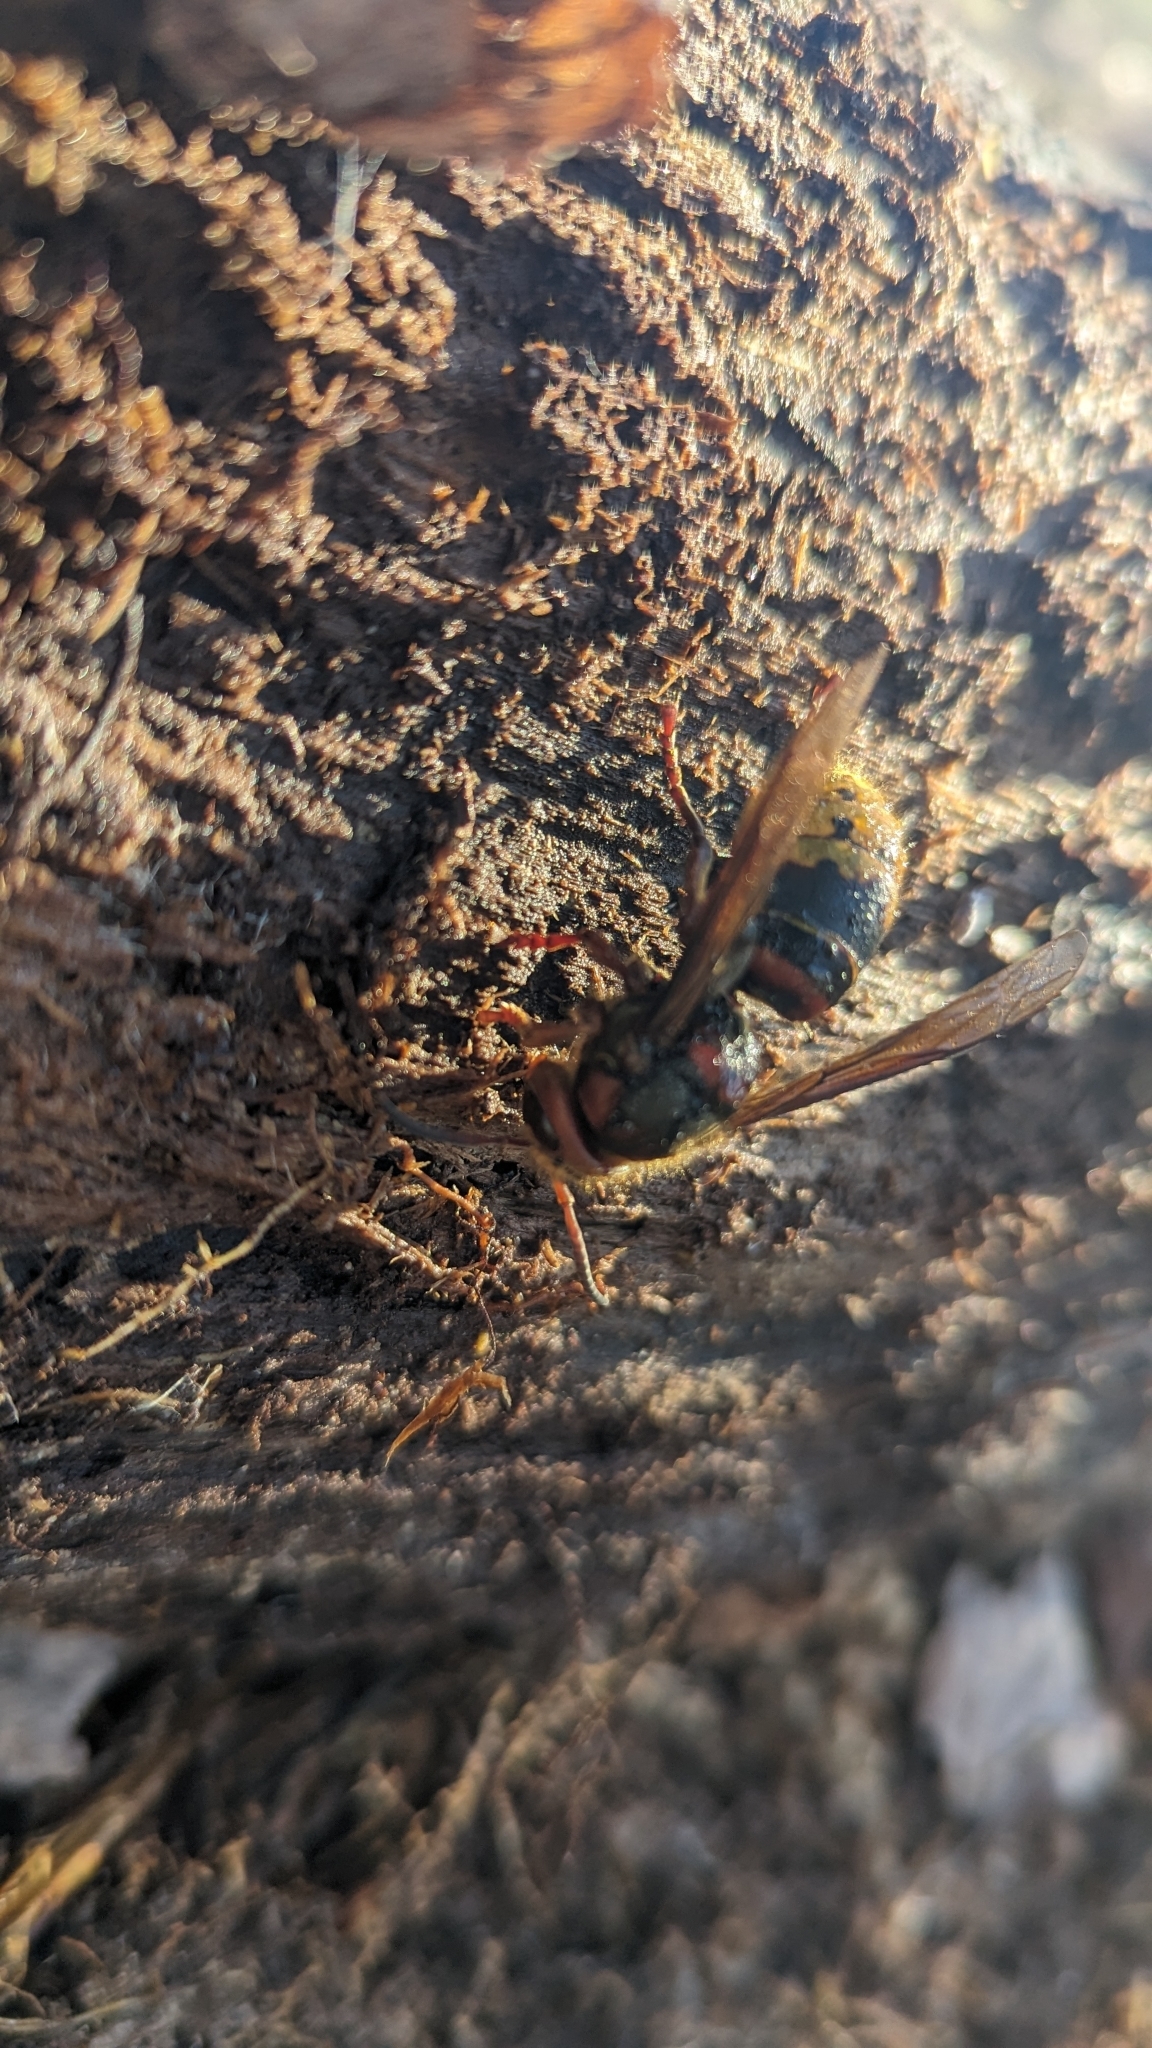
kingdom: Animalia
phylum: Arthropoda
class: Insecta
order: Hymenoptera
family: Vespidae
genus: Vespa
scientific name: Vespa crabro
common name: Hornet
